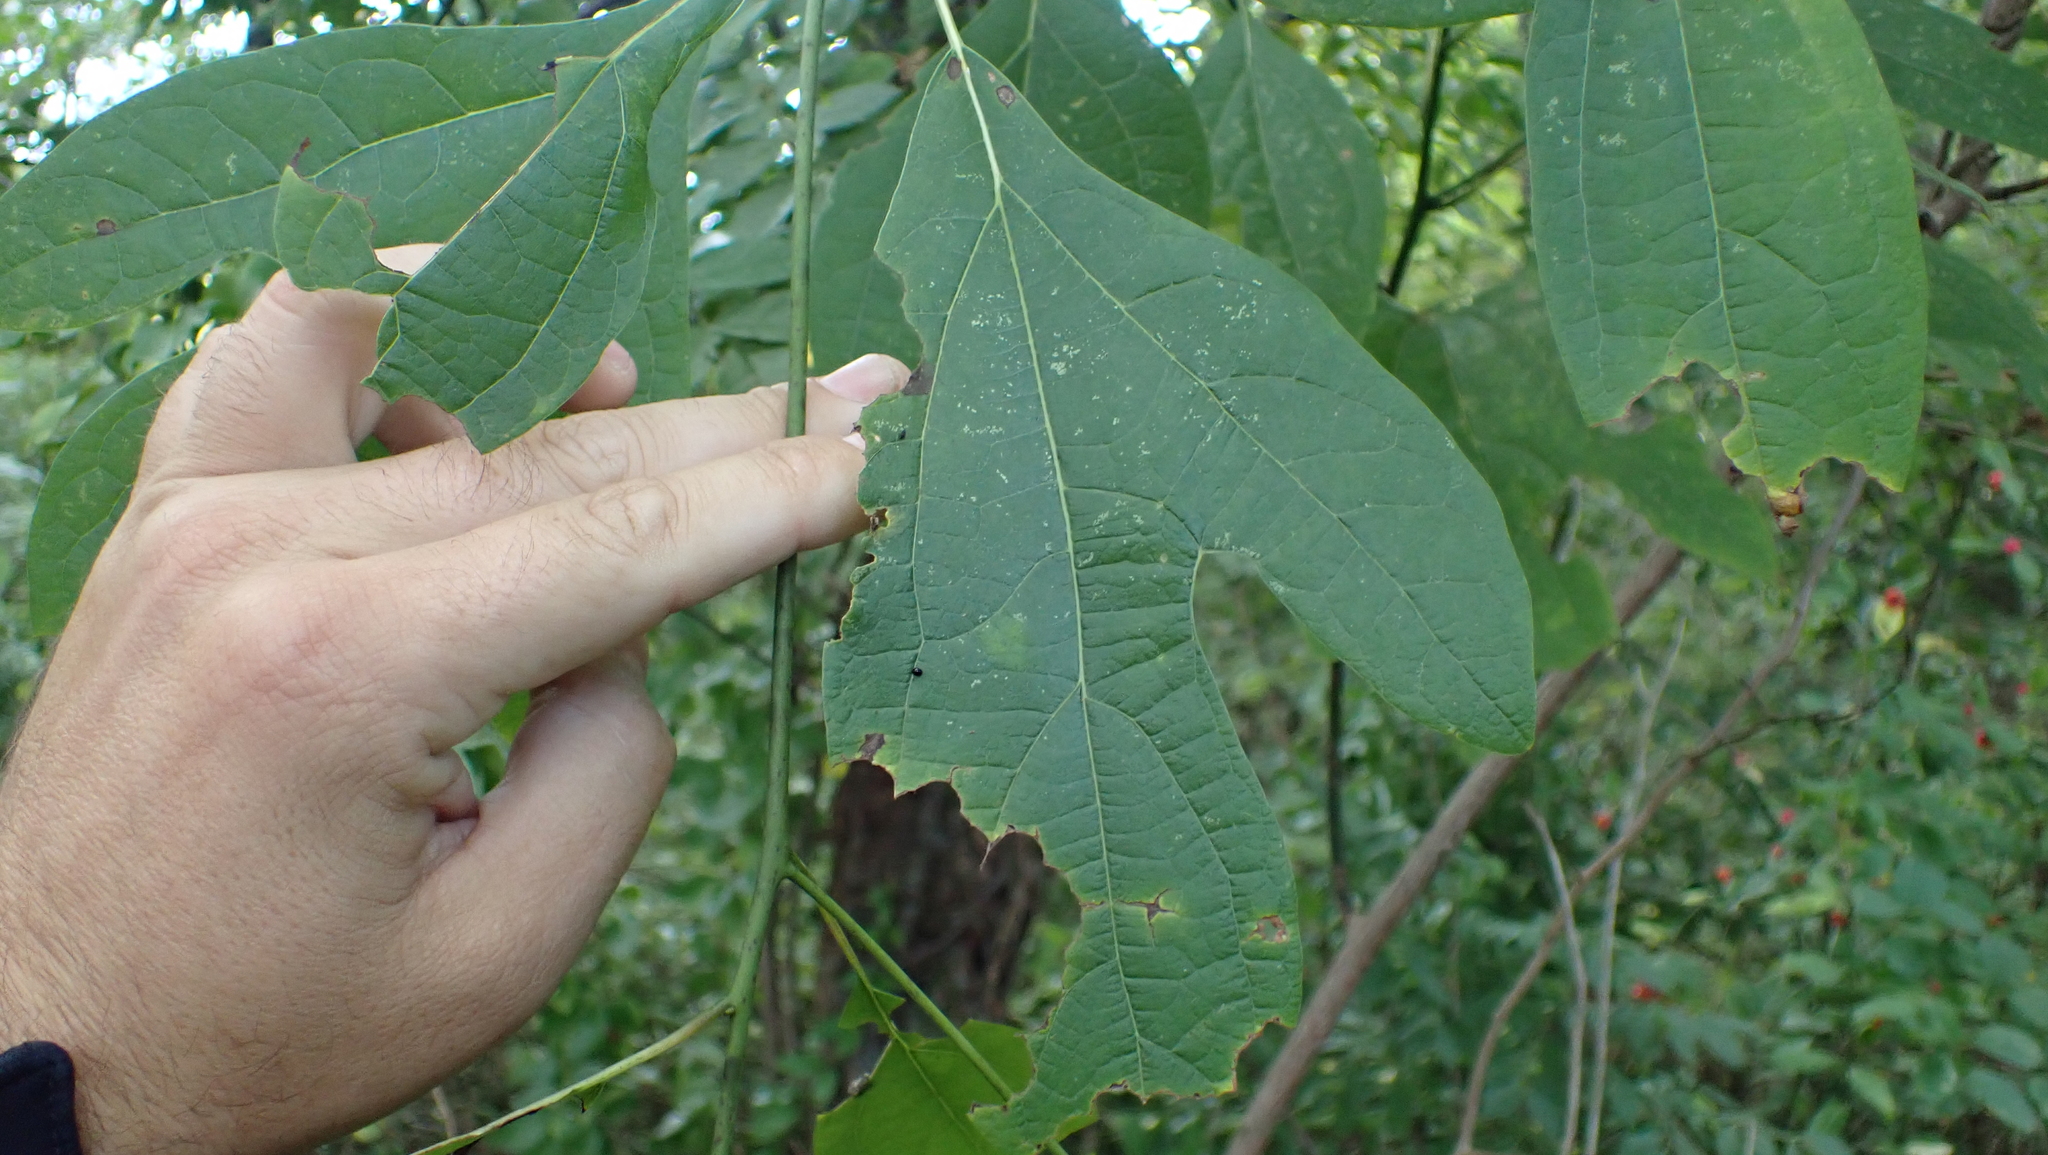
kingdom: Plantae
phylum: Tracheophyta
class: Magnoliopsida
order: Laurales
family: Lauraceae
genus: Sassafras
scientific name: Sassafras albidum
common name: Sassafras
